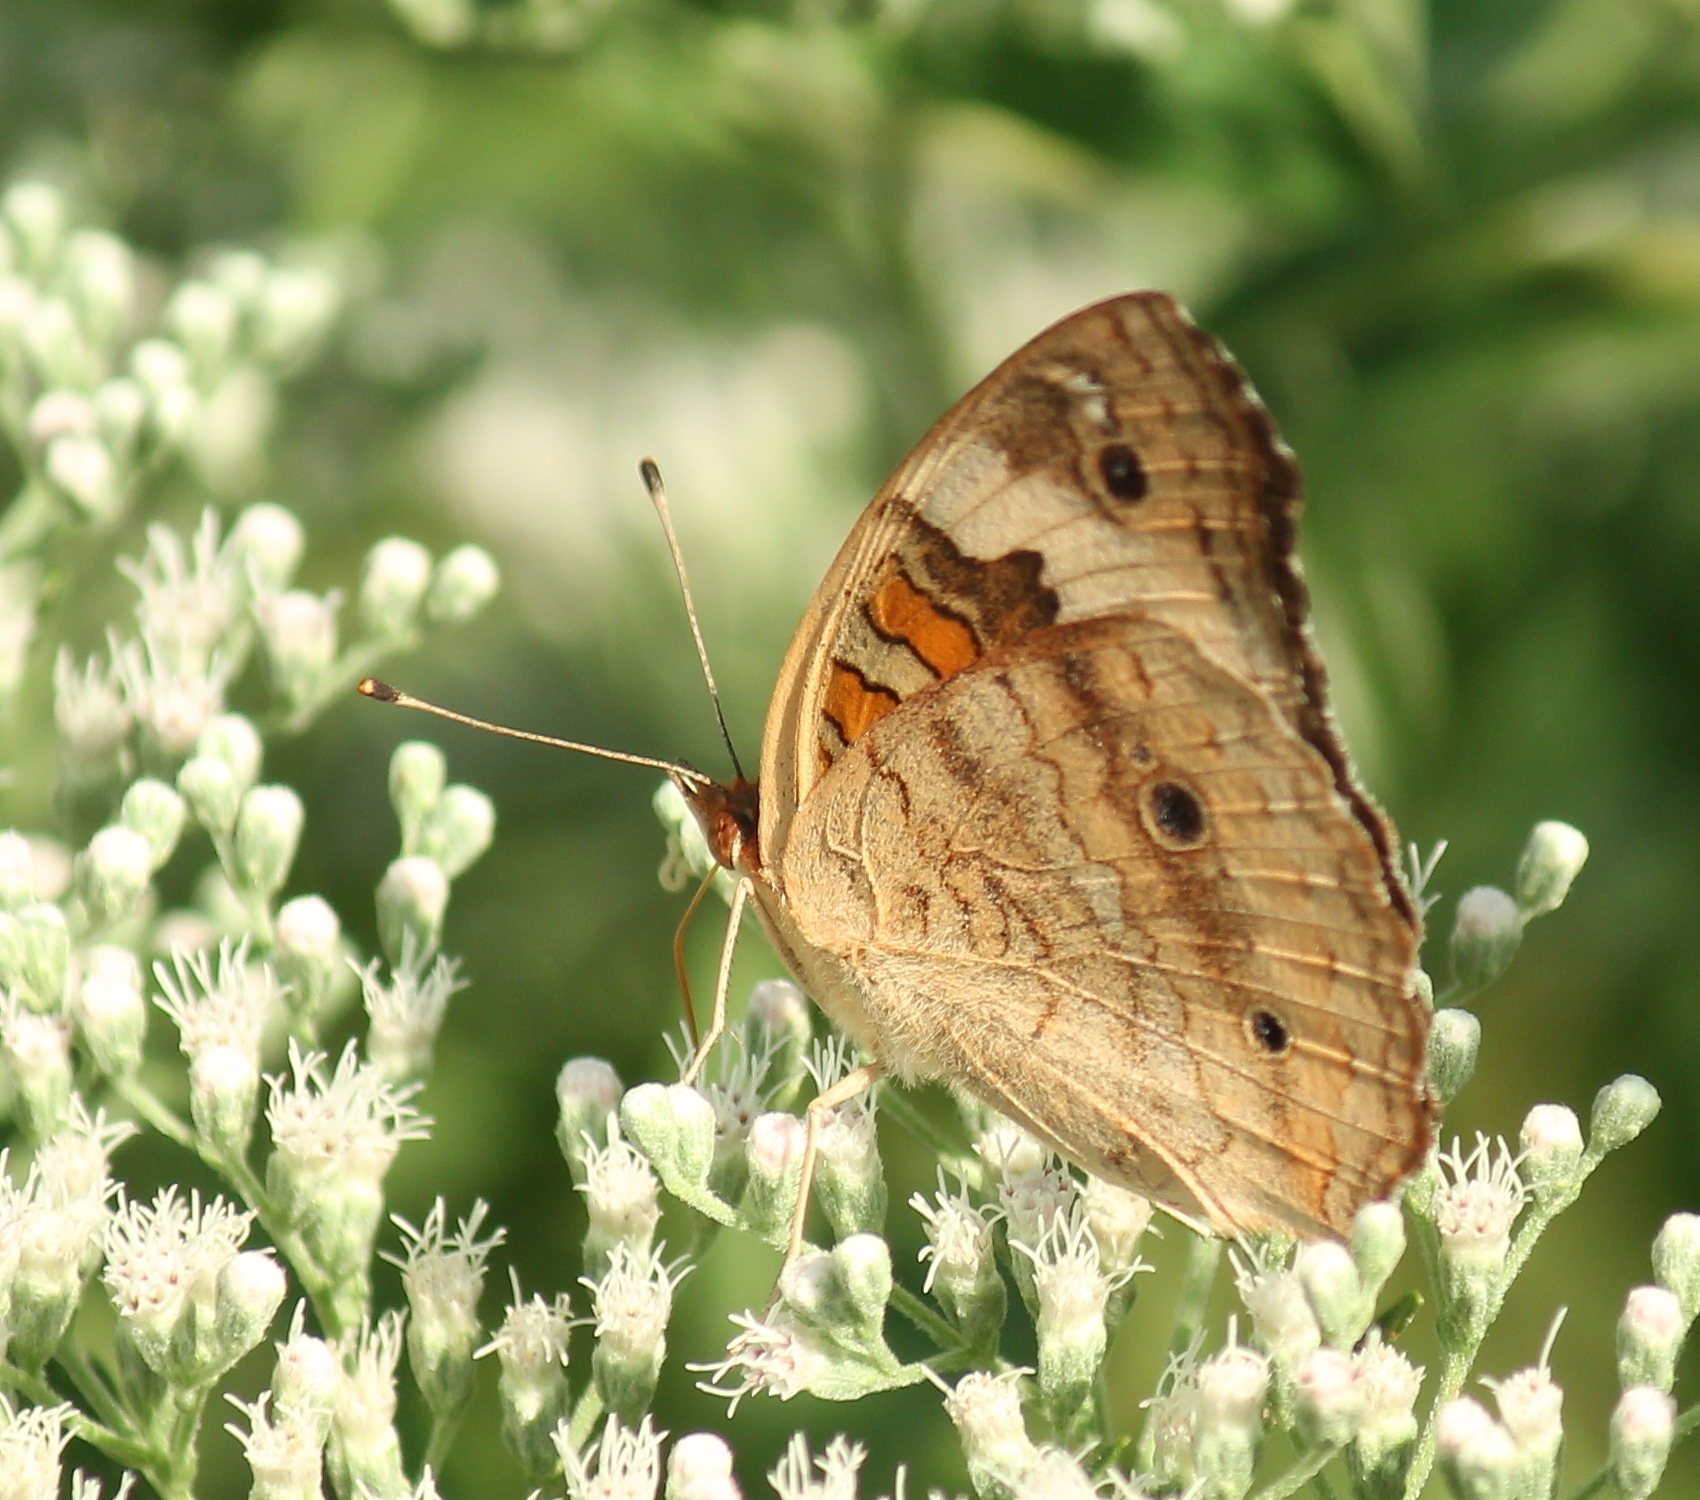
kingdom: Animalia
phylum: Arthropoda
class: Insecta
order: Lepidoptera
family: Nymphalidae
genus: Junonia
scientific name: Junonia coenia
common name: Common buckeye
